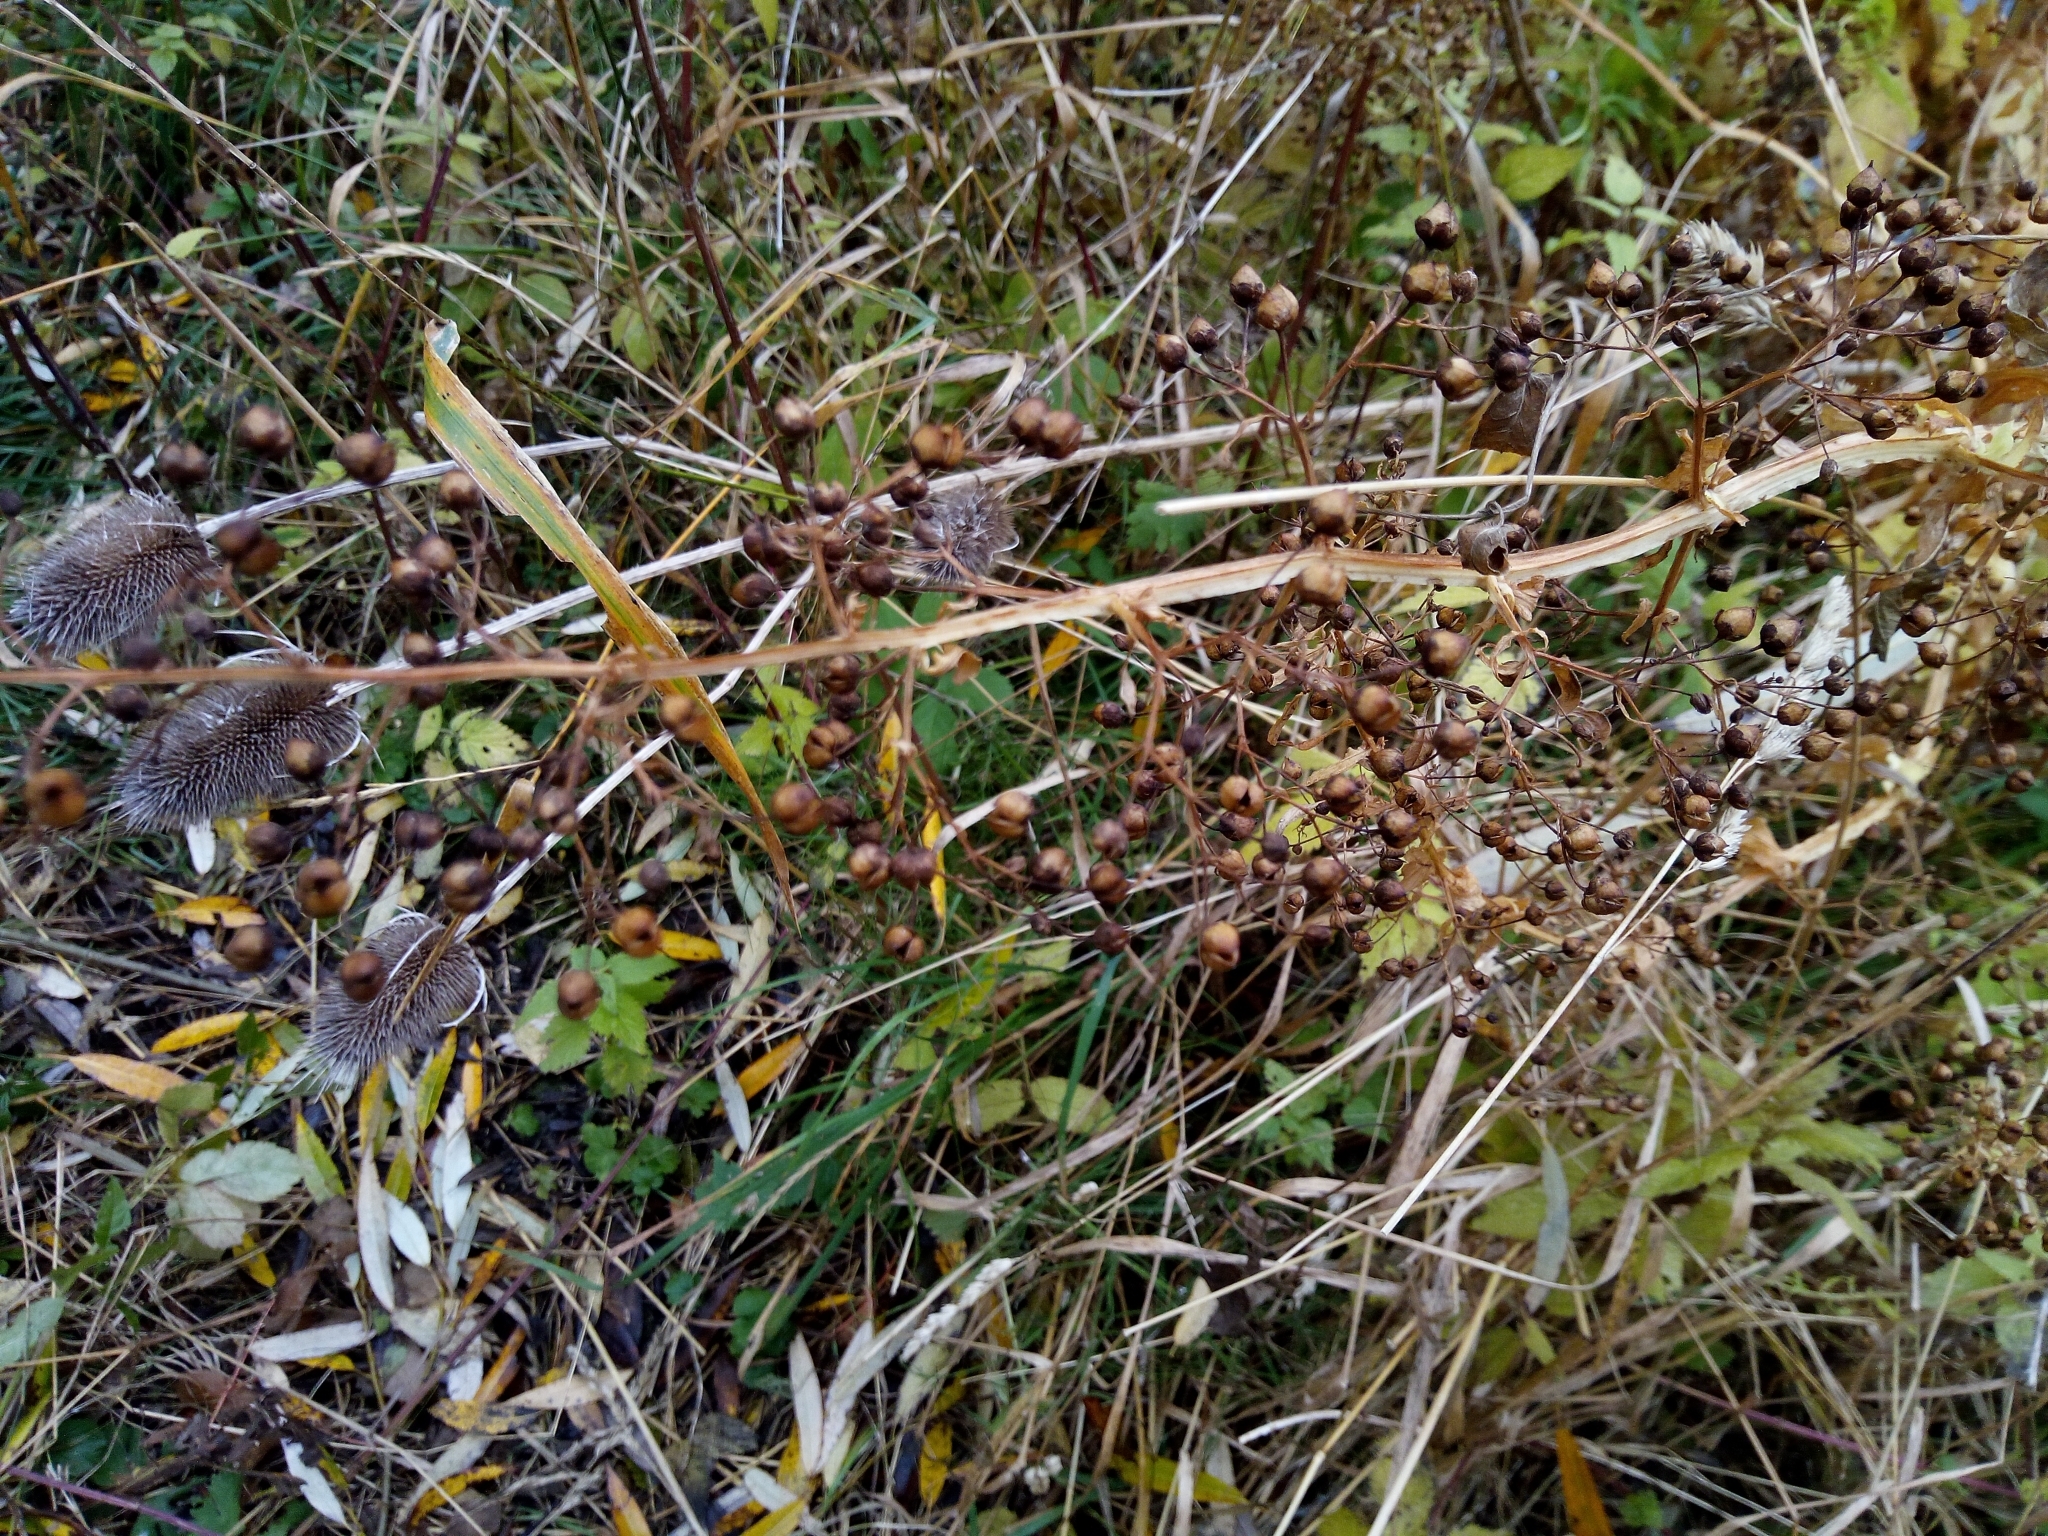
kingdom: Plantae
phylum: Tracheophyta
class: Magnoliopsida
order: Lamiales
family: Scrophulariaceae
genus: Scrophularia
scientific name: Scrophularia umbrosa
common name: Green figwort
